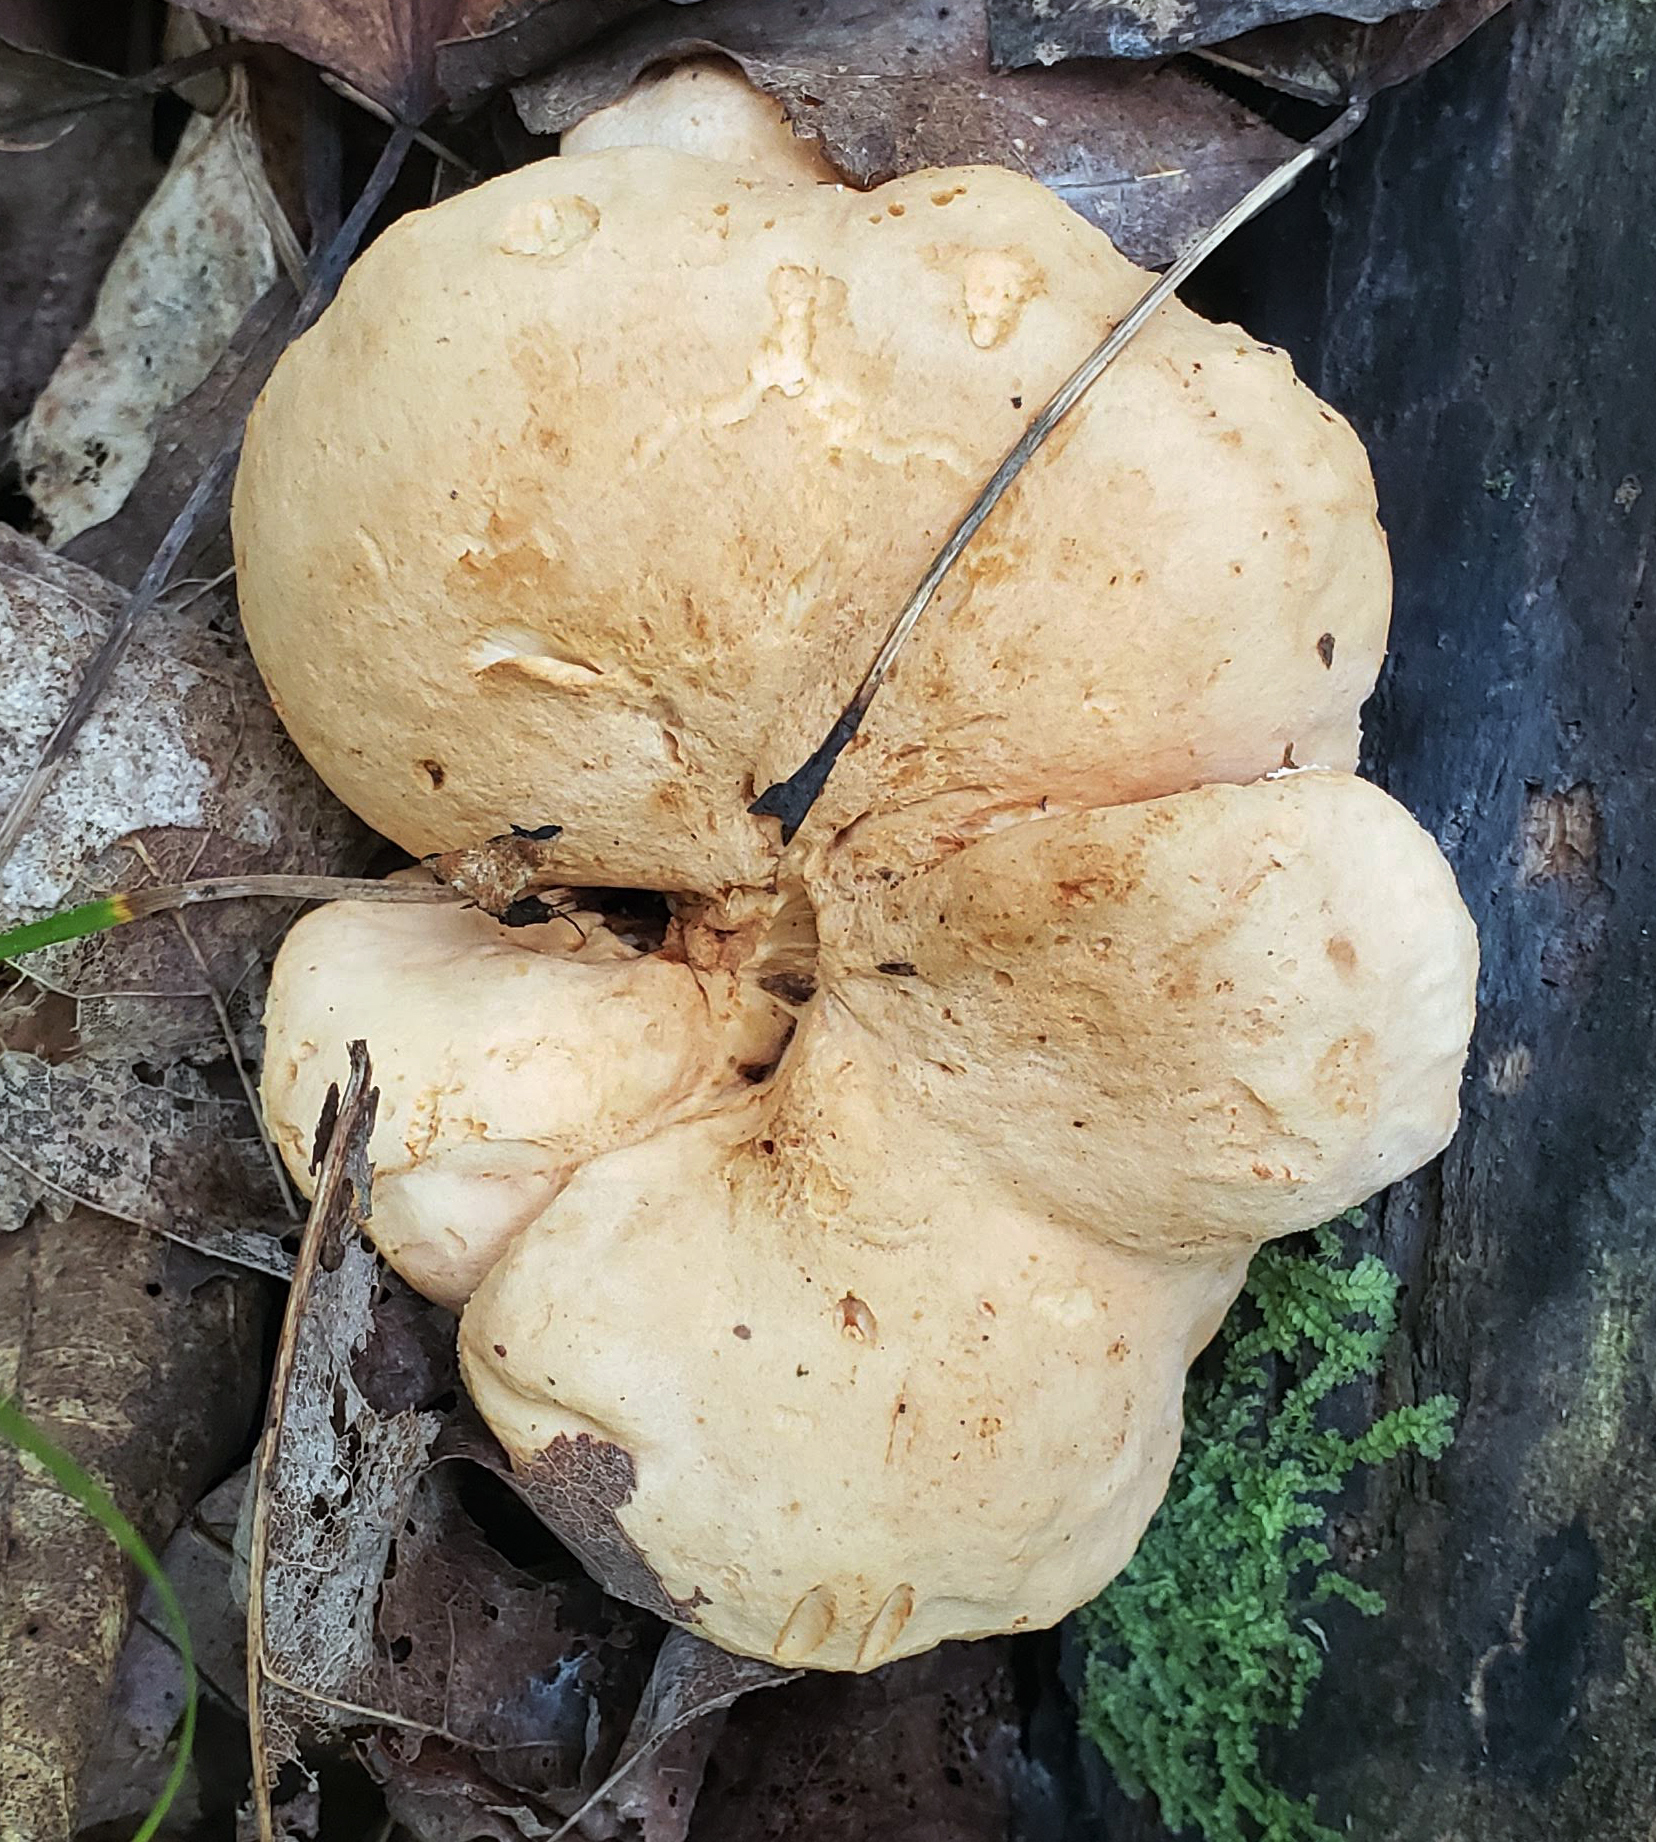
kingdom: Fungi
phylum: Basidiomycota
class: Agaricomycetes
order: Cantharellales
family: Hydnaceae
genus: Hydnum
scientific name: Hydnum umbilicatum
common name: Umbilicate hedgehog
